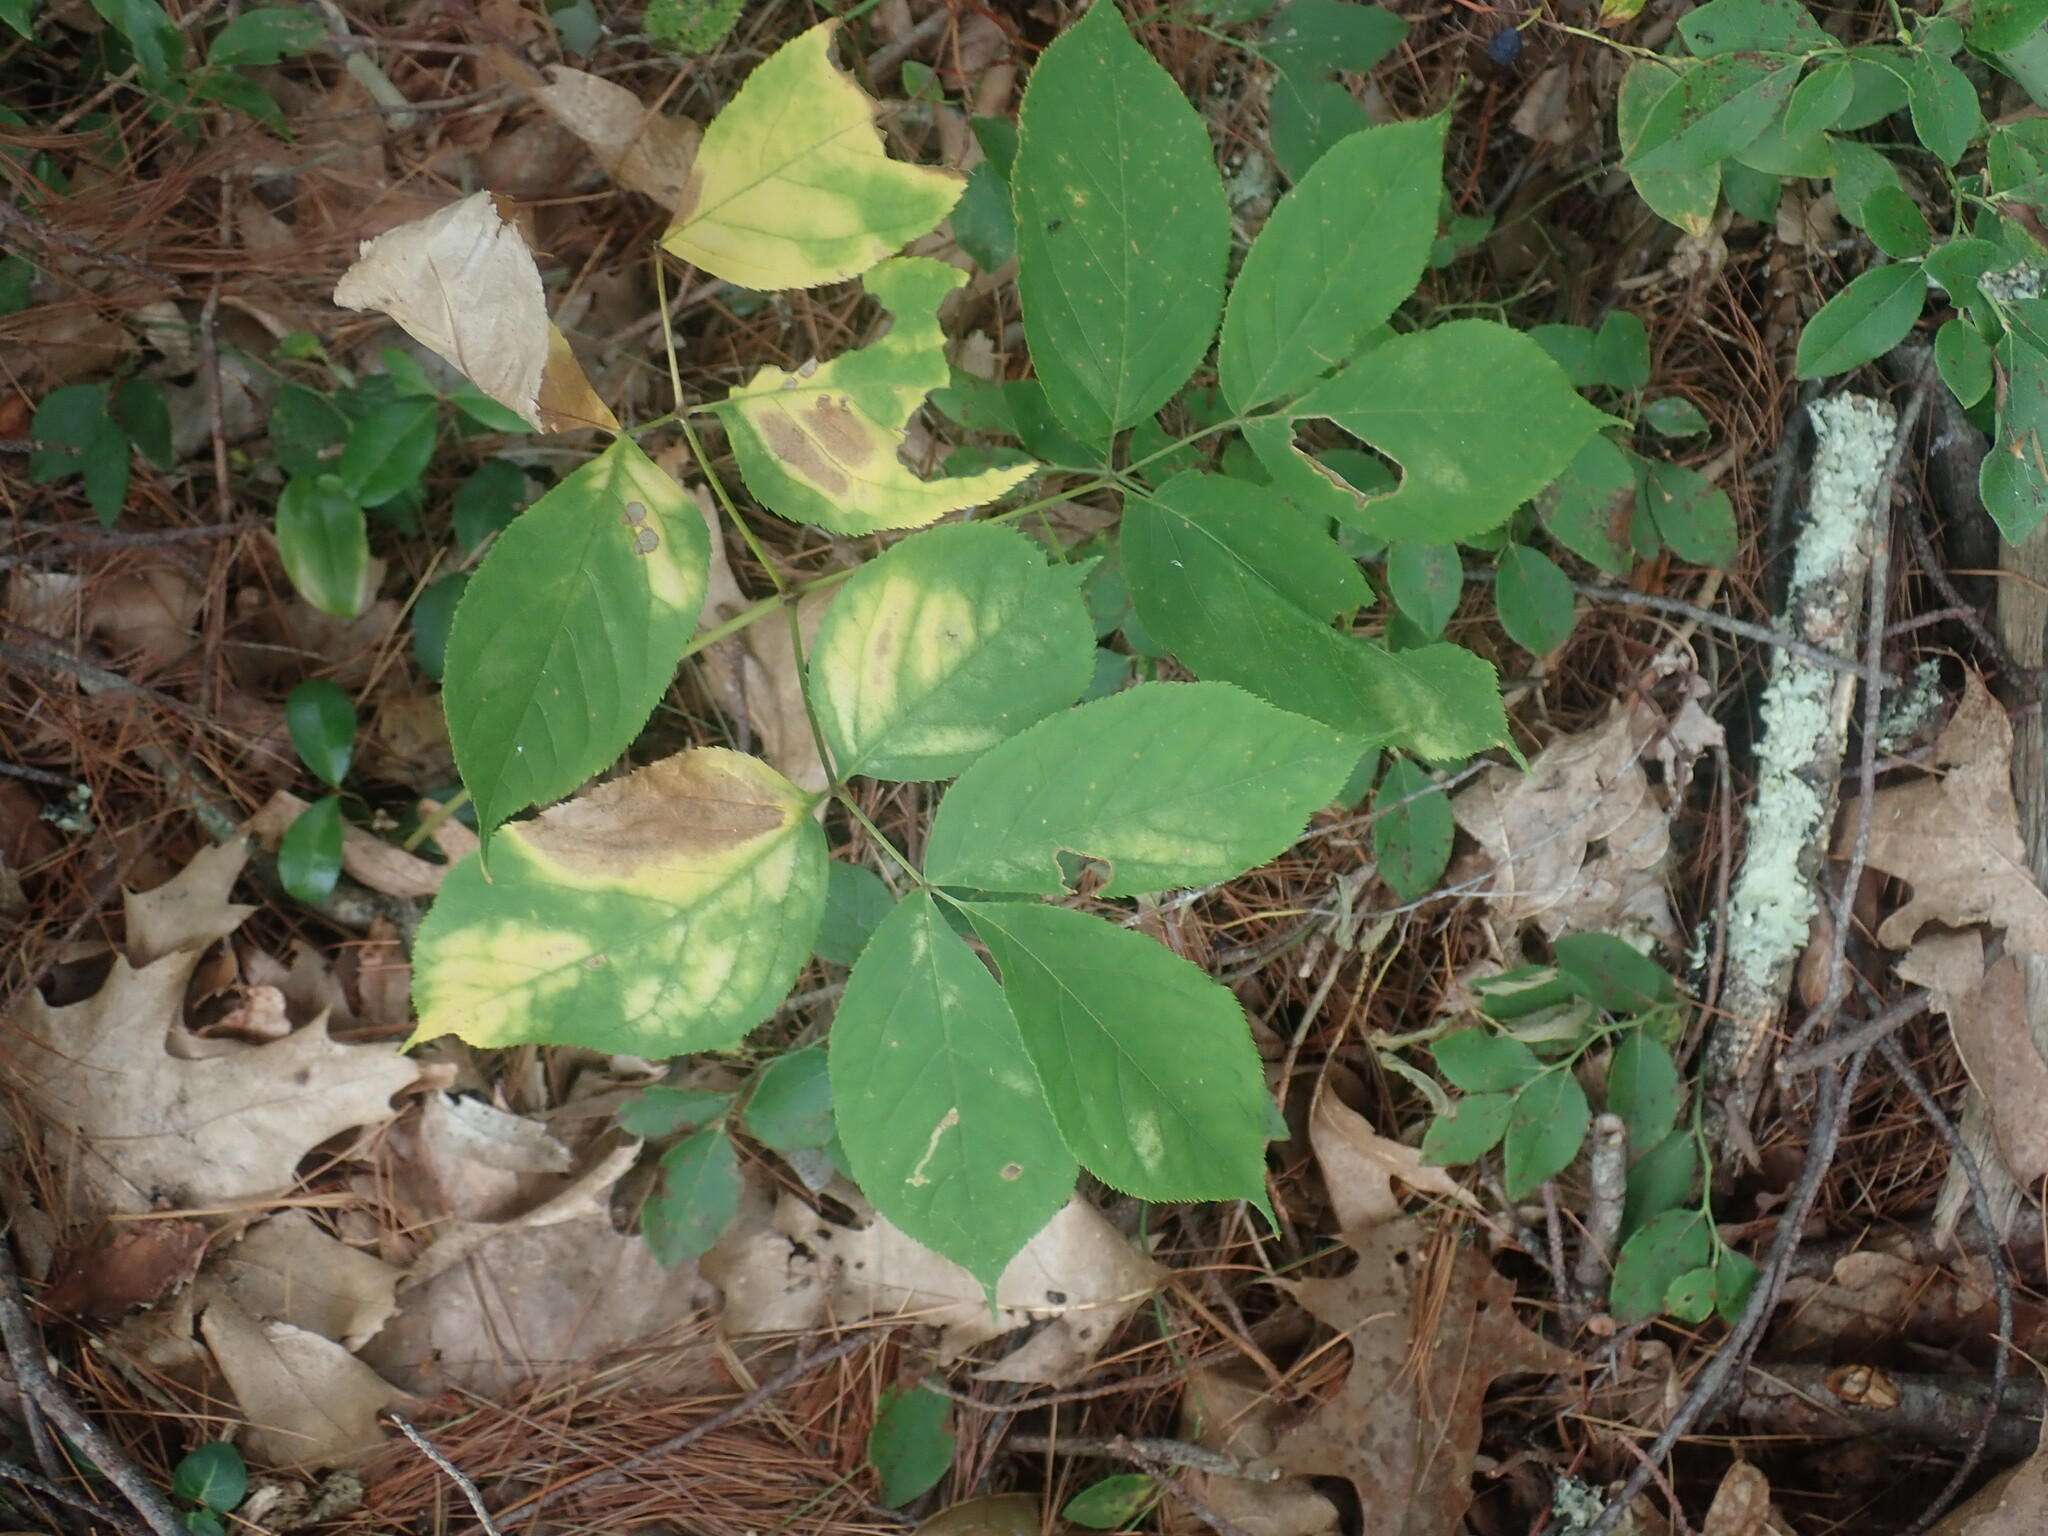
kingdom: Plantae
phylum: Tracheophyta
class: Magnoliopsida
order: Apiales
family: Araliaceae
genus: Aralia
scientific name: Aralia nudicaulis
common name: Wild sarsaparilla
